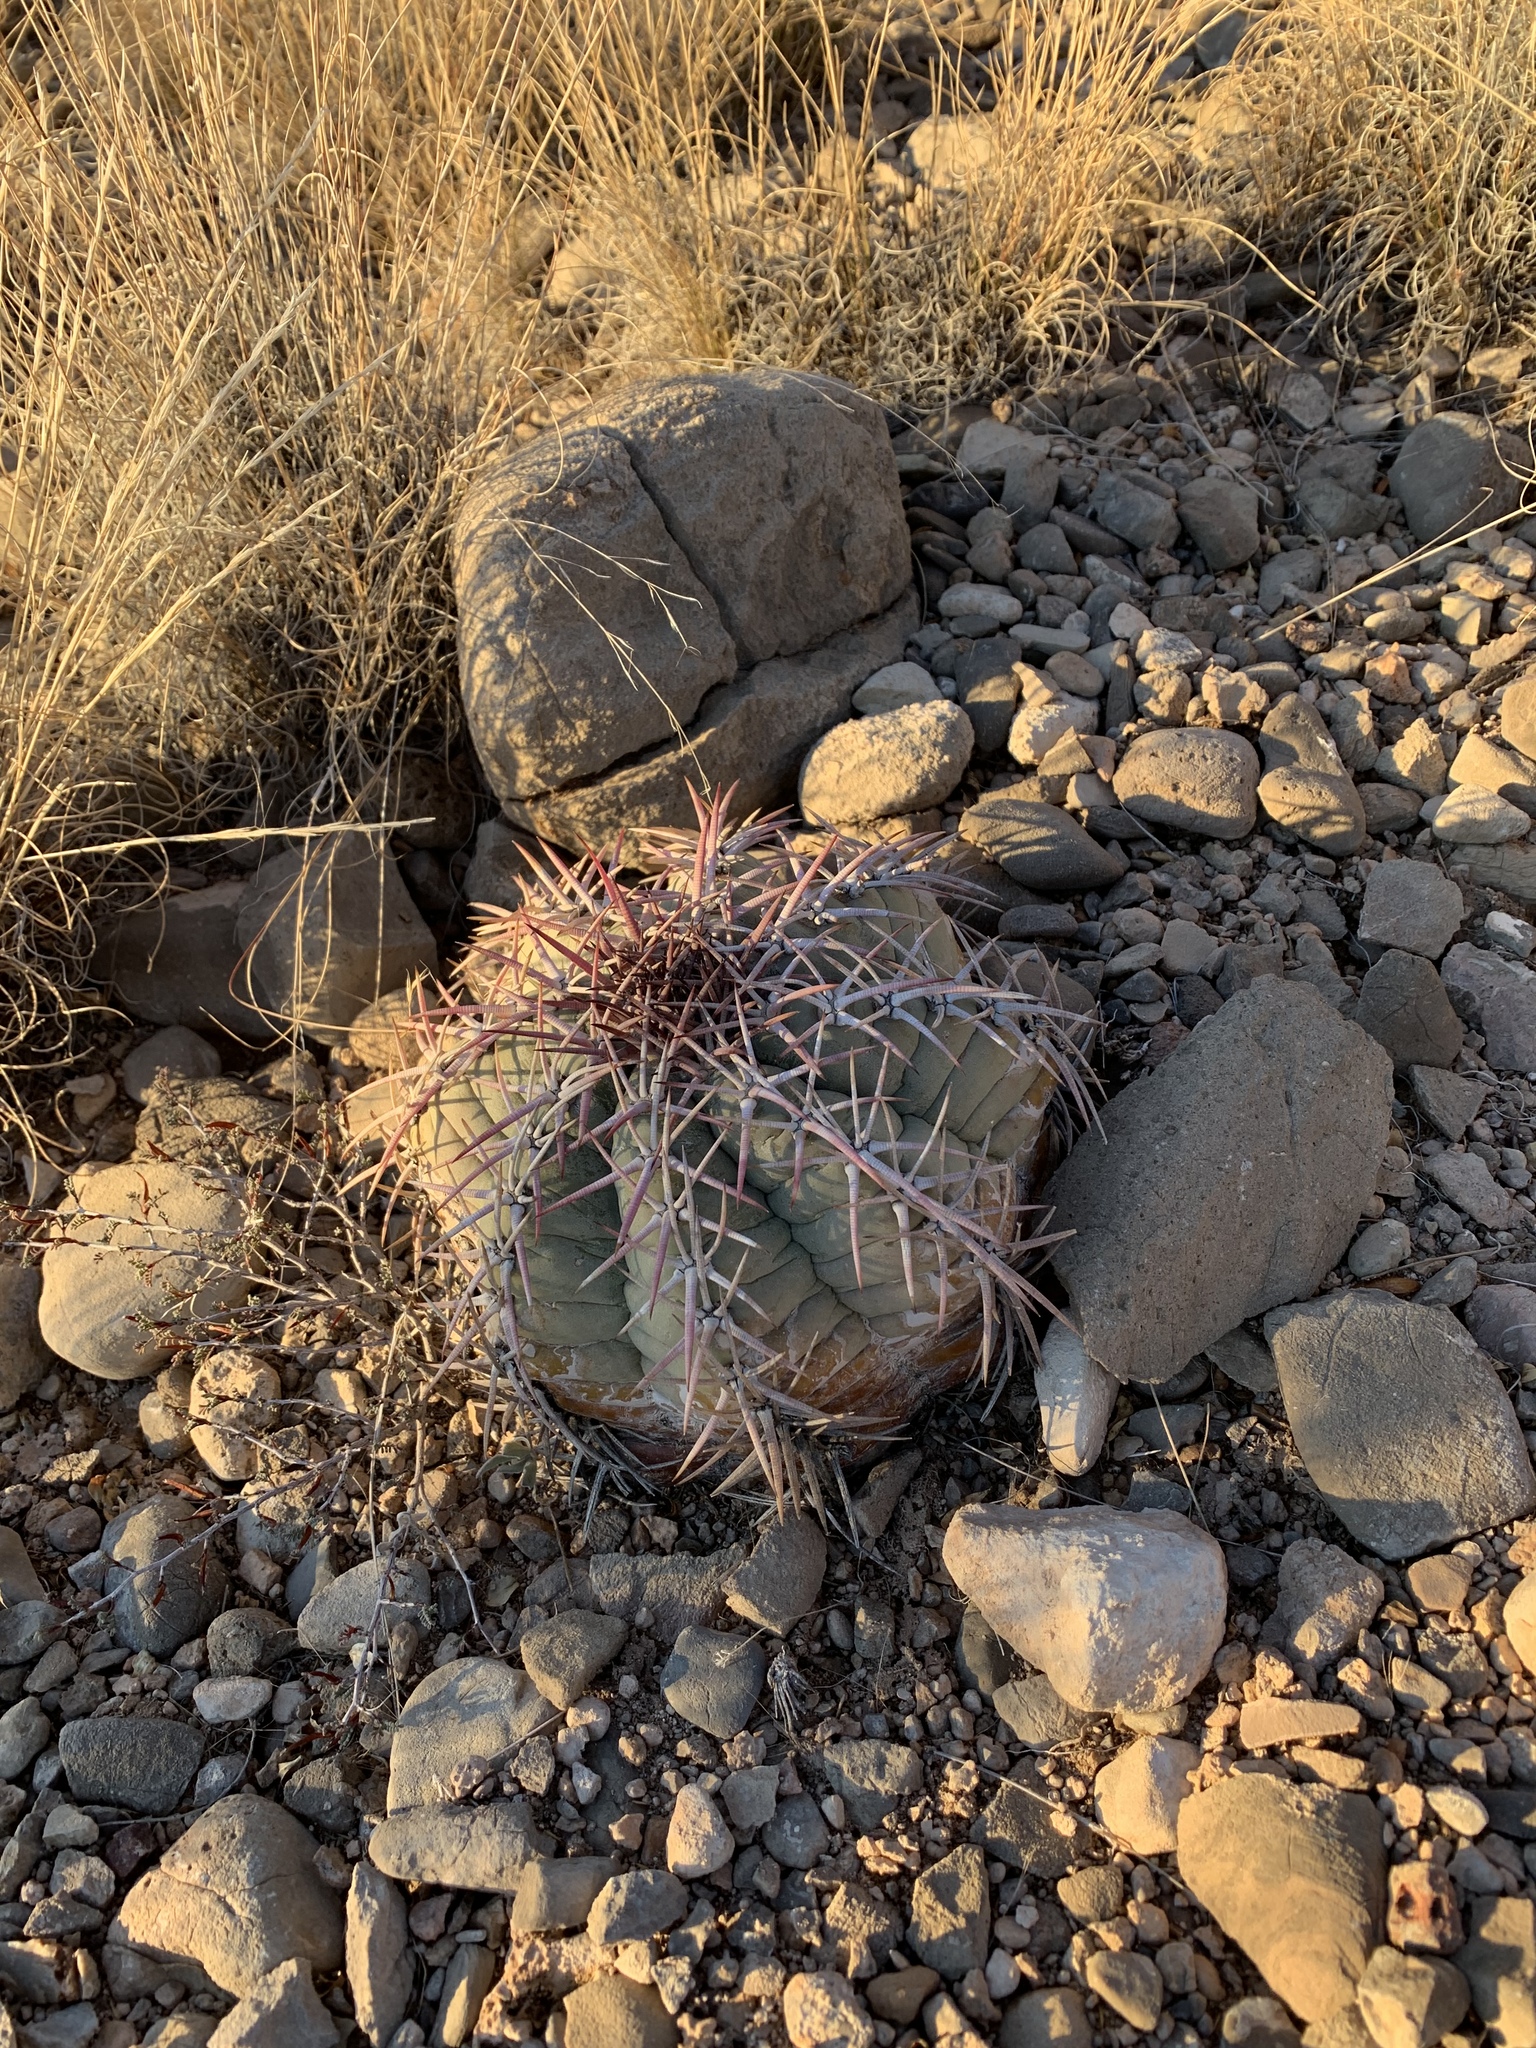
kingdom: Plantae
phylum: Tracheophyta
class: Magnoliopsida
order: Caryophyllales
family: Cactaceae
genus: Echinocactus
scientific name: Echinocactus horizonthalonius
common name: Devilshead
